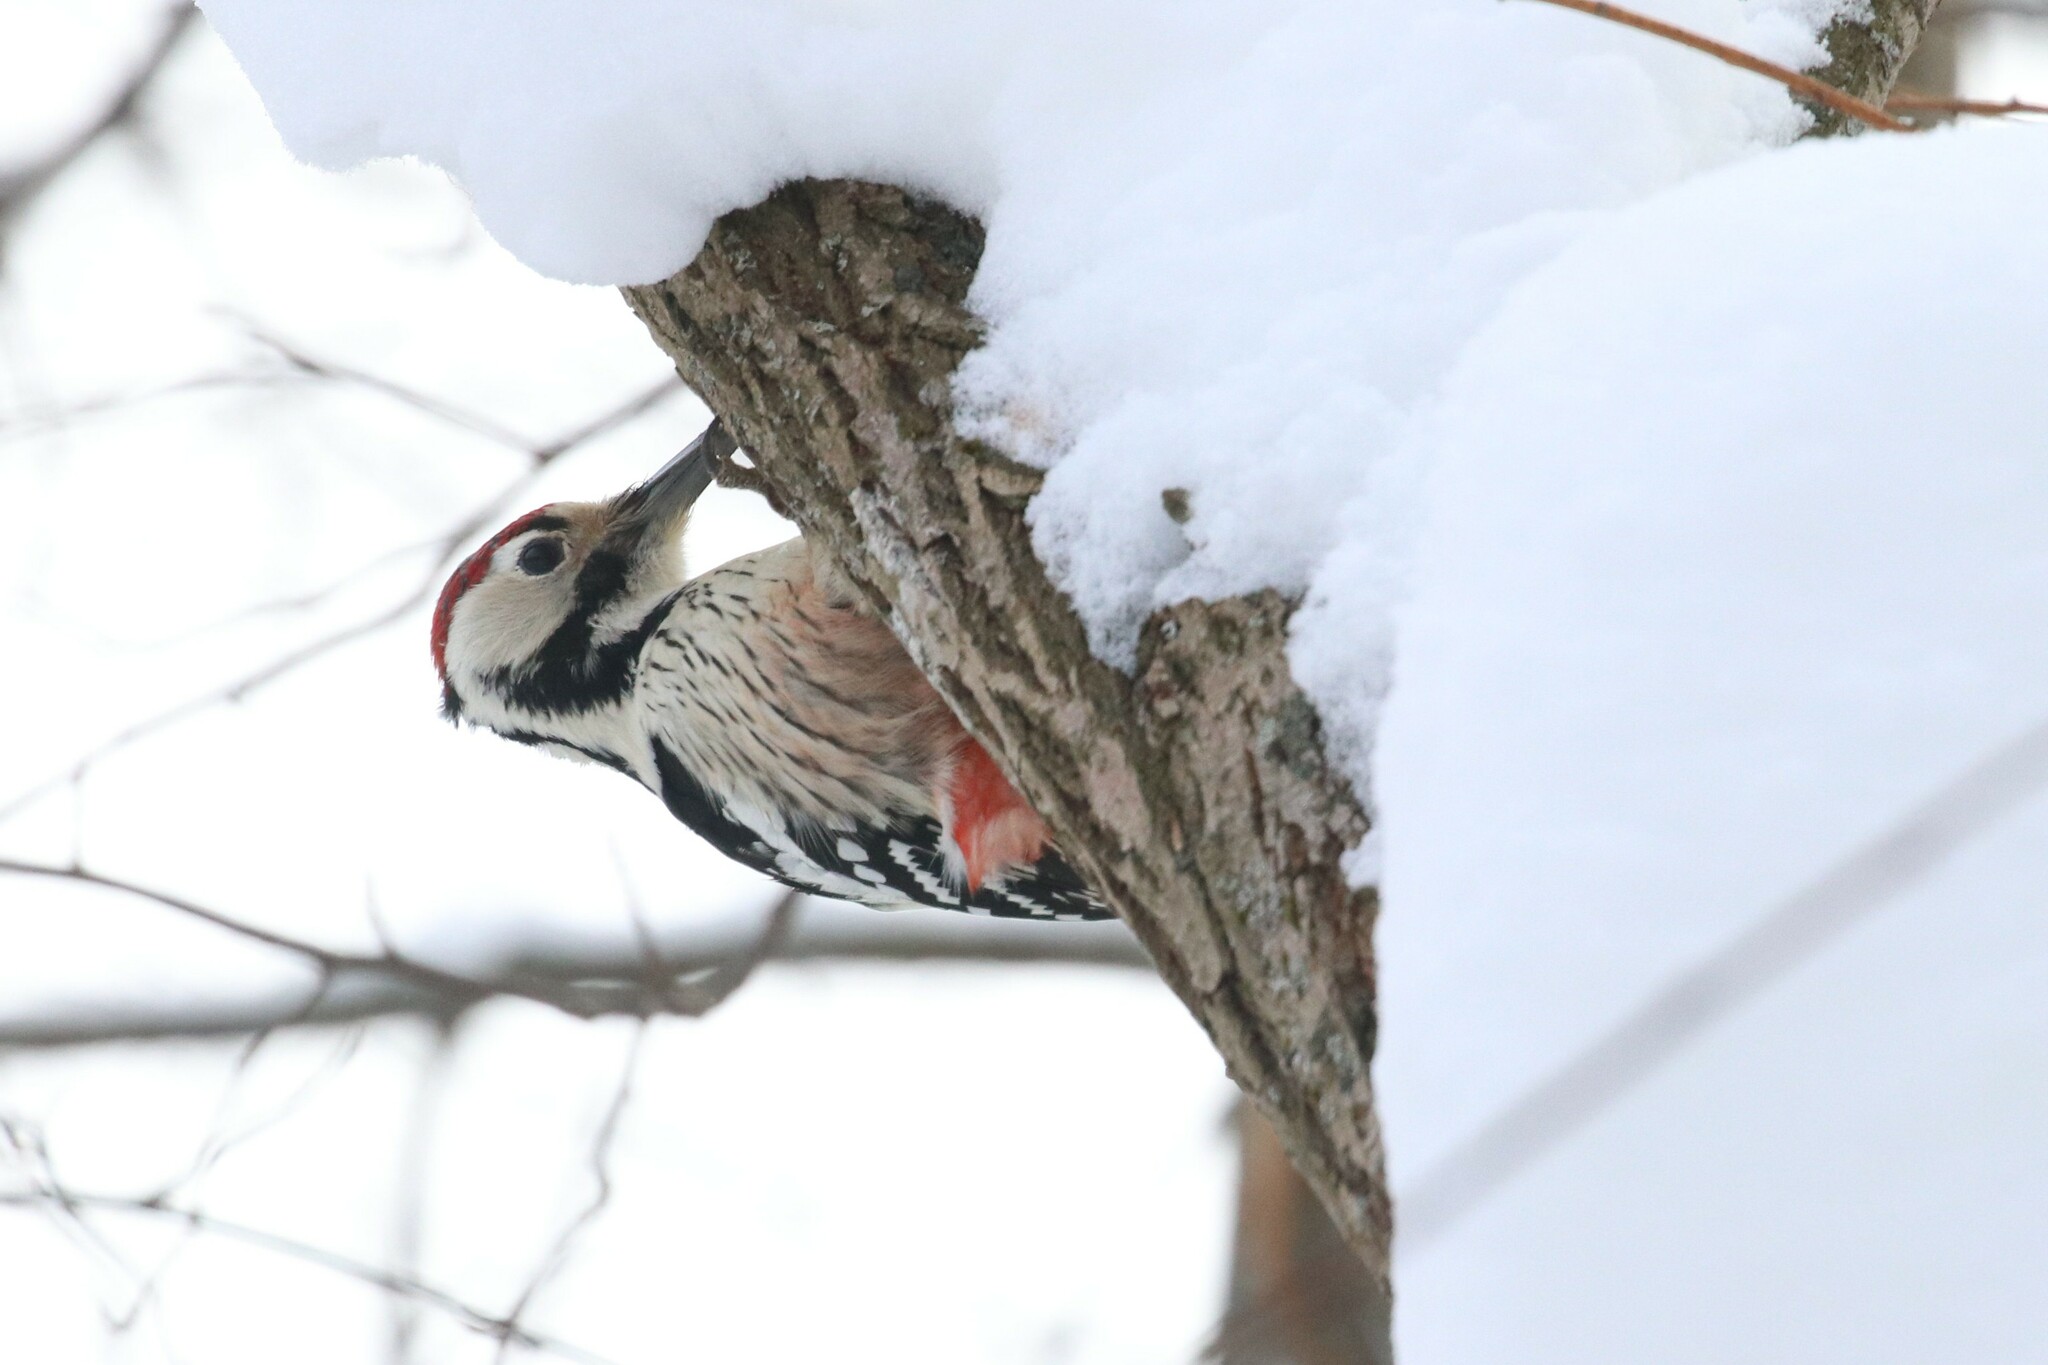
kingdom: Animalia
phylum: Chordata
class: Aves
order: Piciformes
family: Picidae
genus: Dendrocopos
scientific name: Dendrocopos leucotos
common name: White-backed woodpecker
